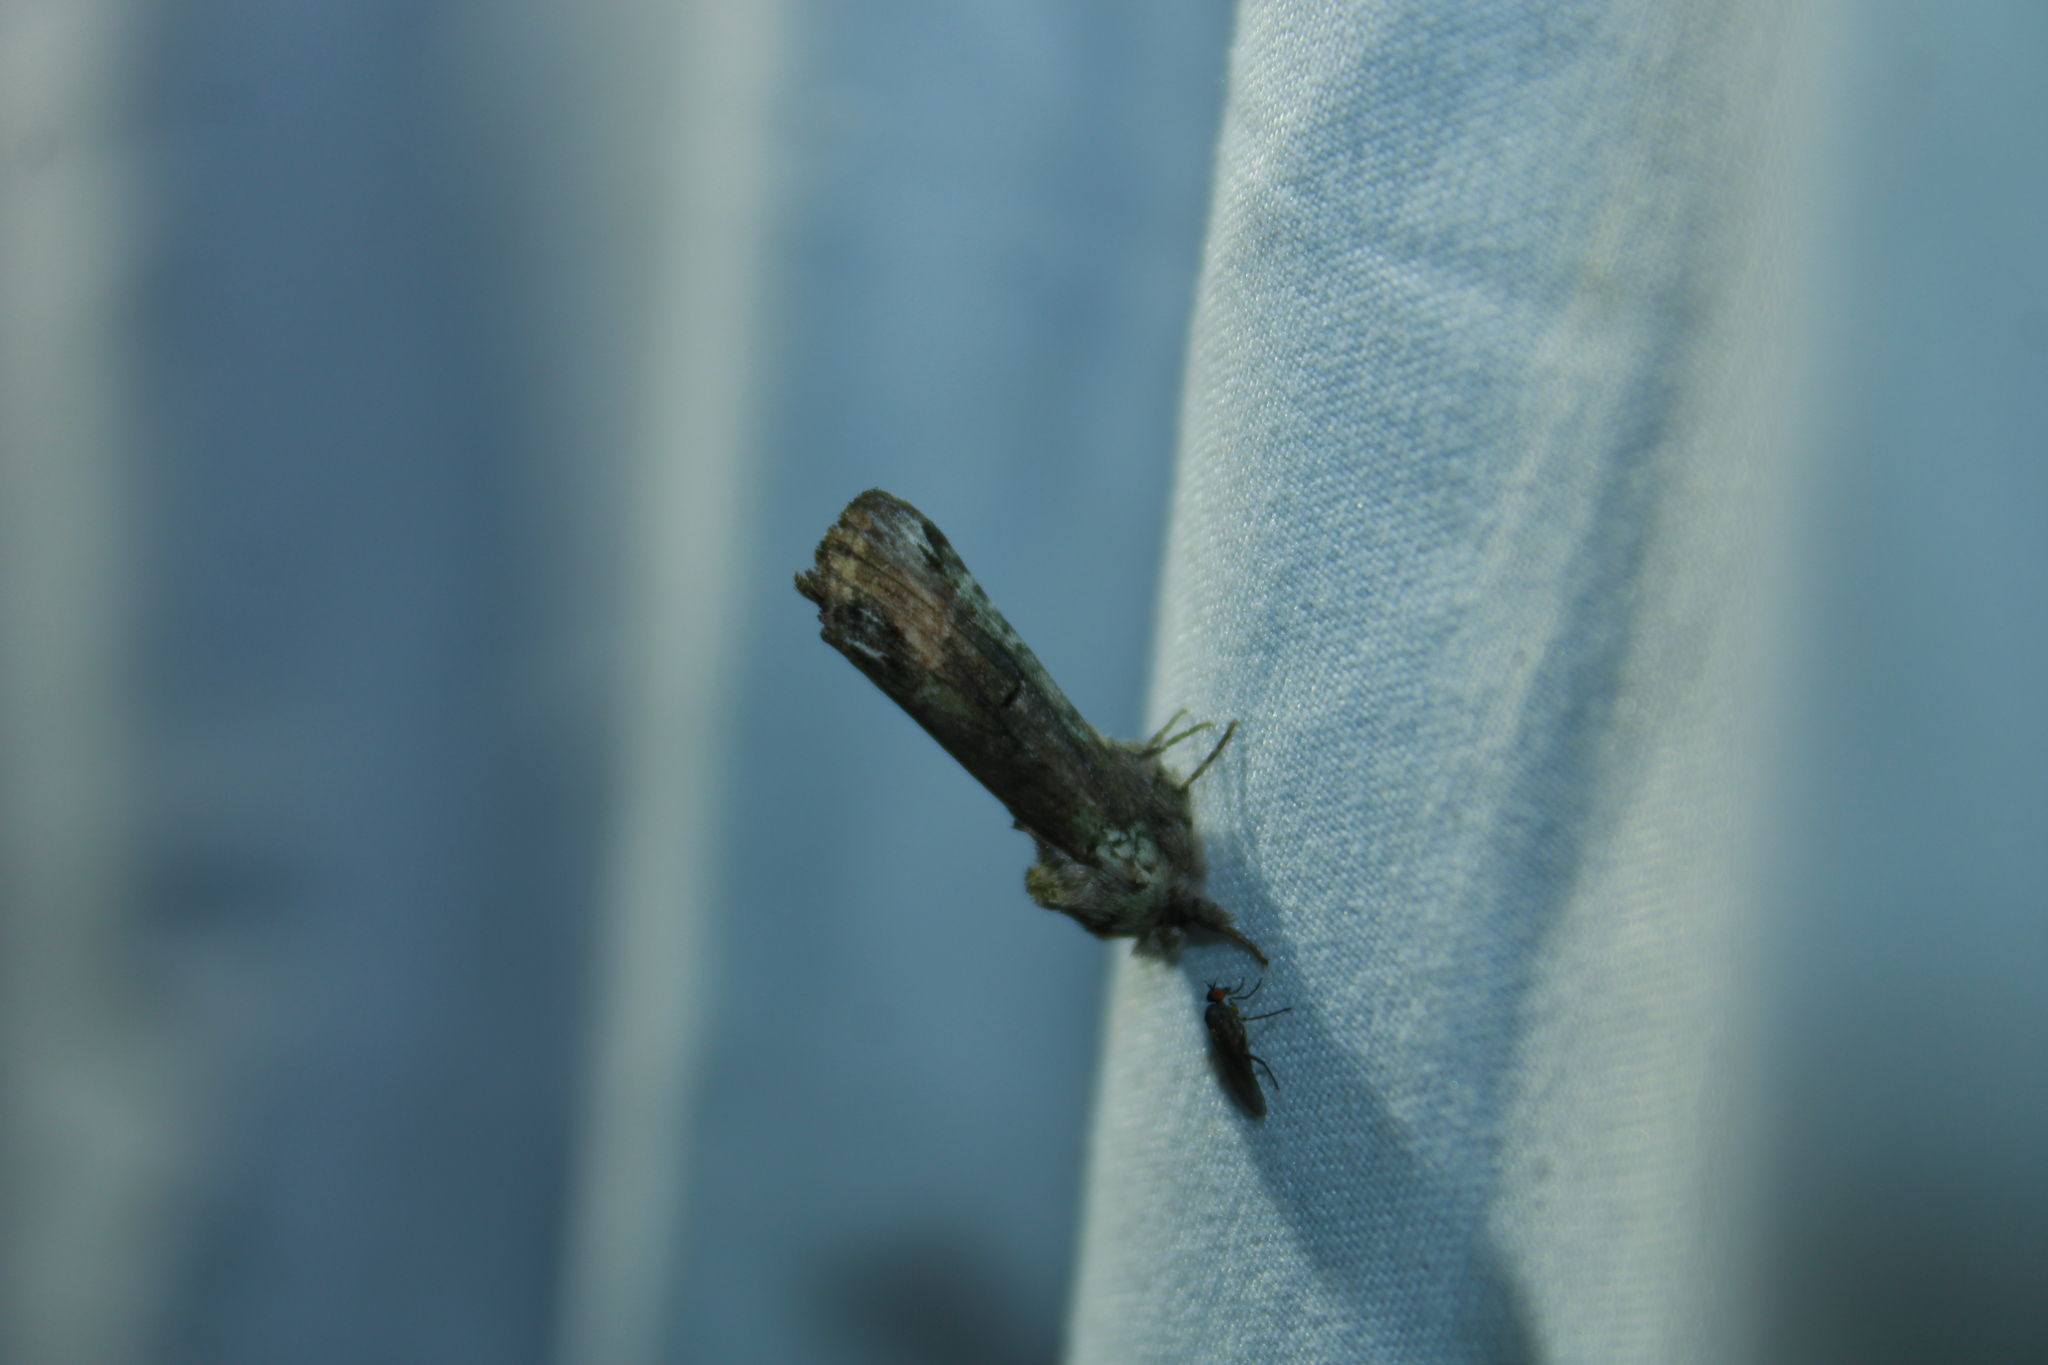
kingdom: Animalia
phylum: Arthropoda
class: Insecta
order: Lepidoptera
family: Notodontidae
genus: Schizura
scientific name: Schizura
